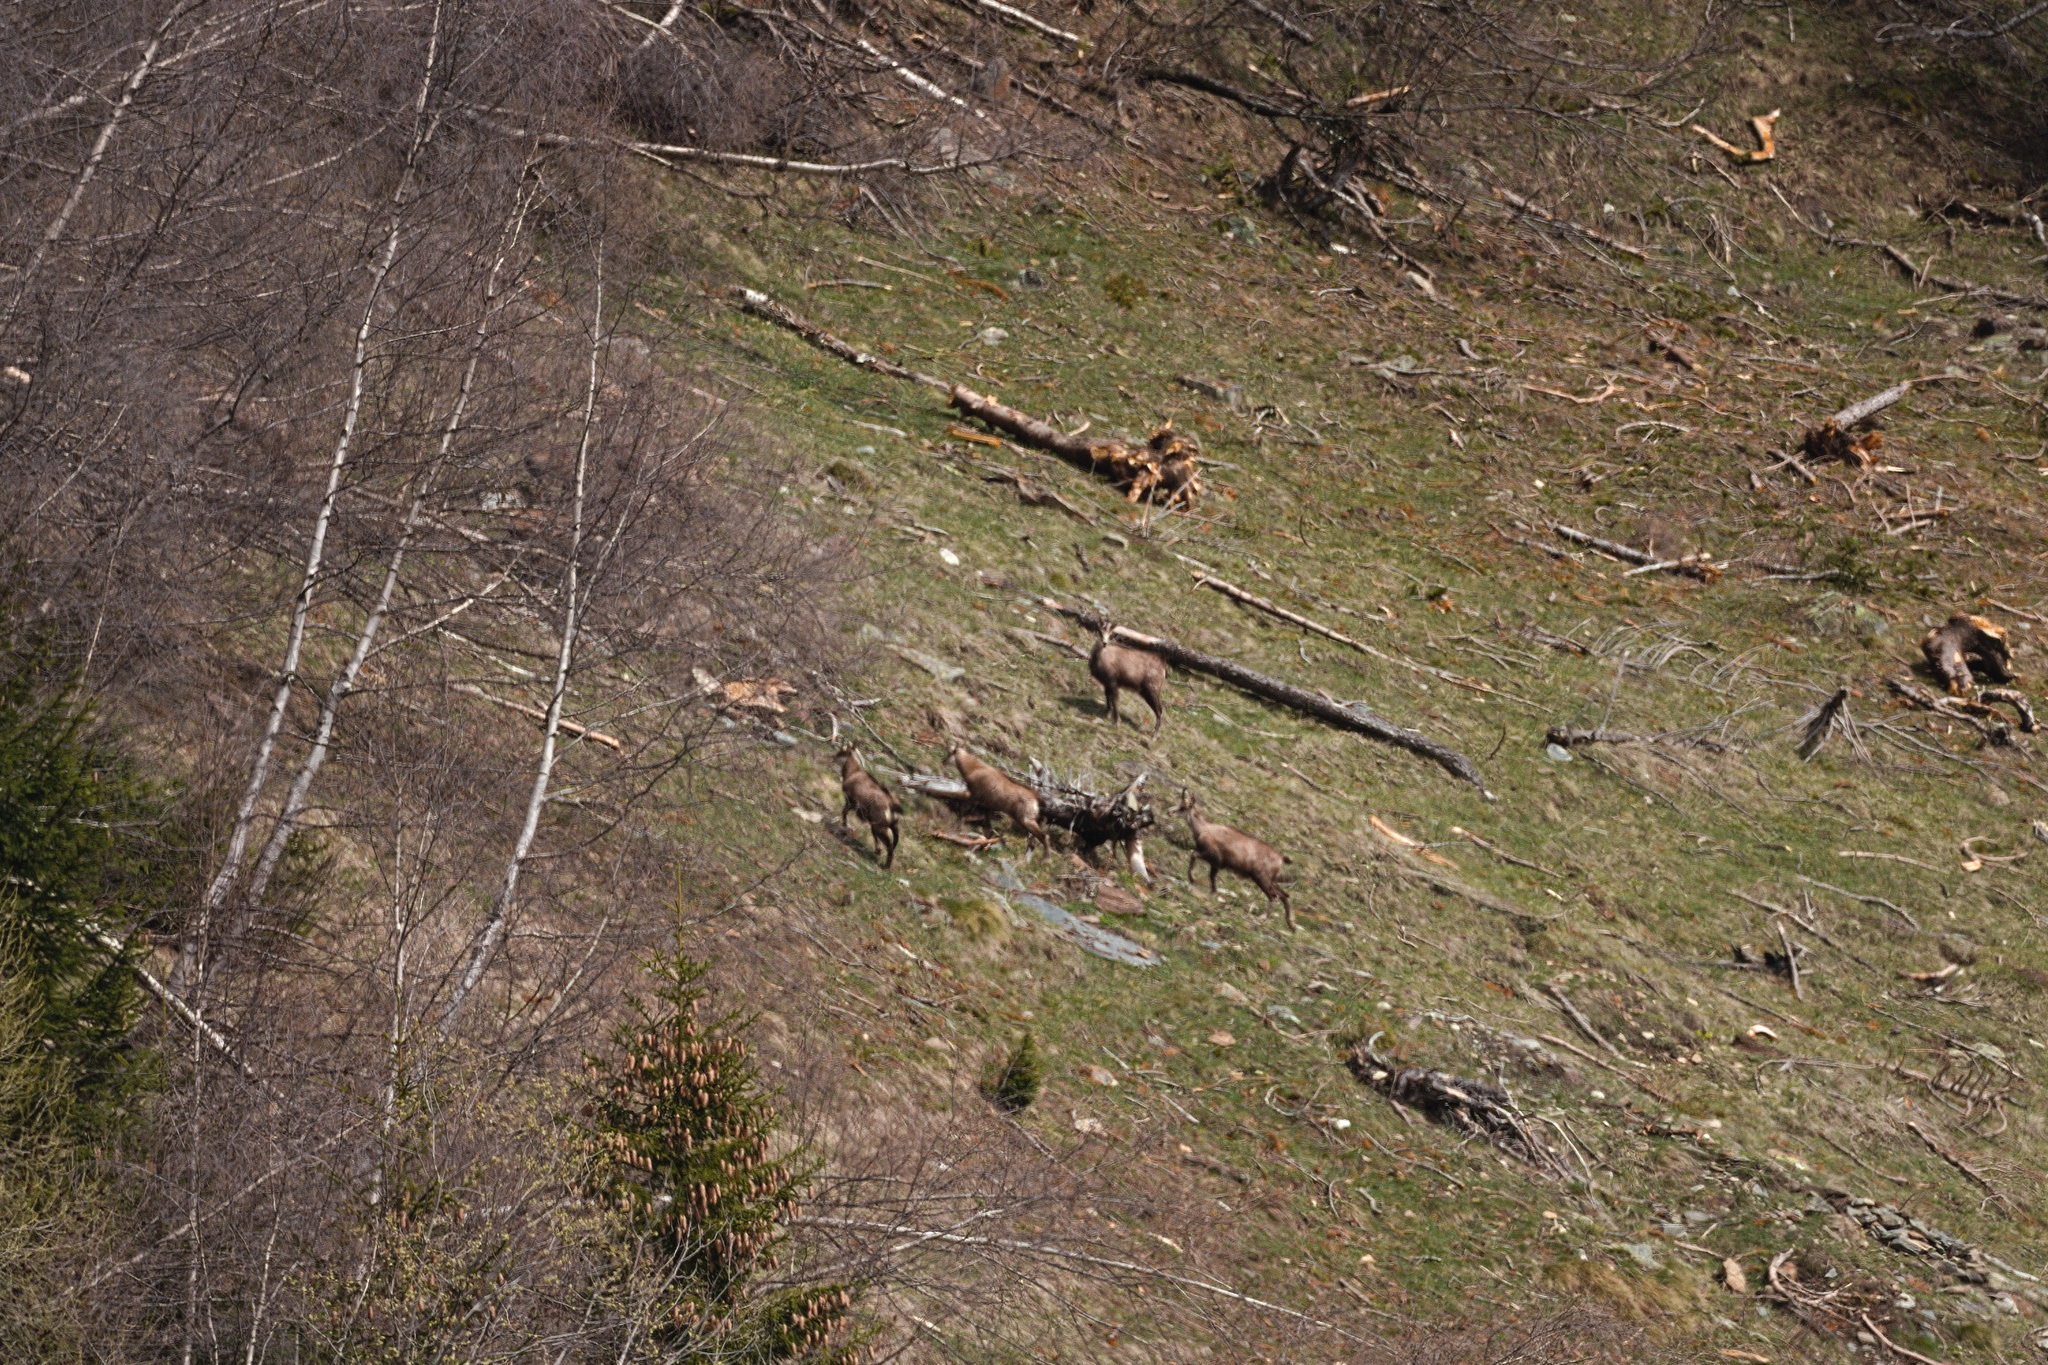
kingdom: Animalia
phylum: Chordata
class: Mammalia
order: Artiodactyla
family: Bovidae
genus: Rupicapra
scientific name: Rupicapra rupicapra
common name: Chamois
